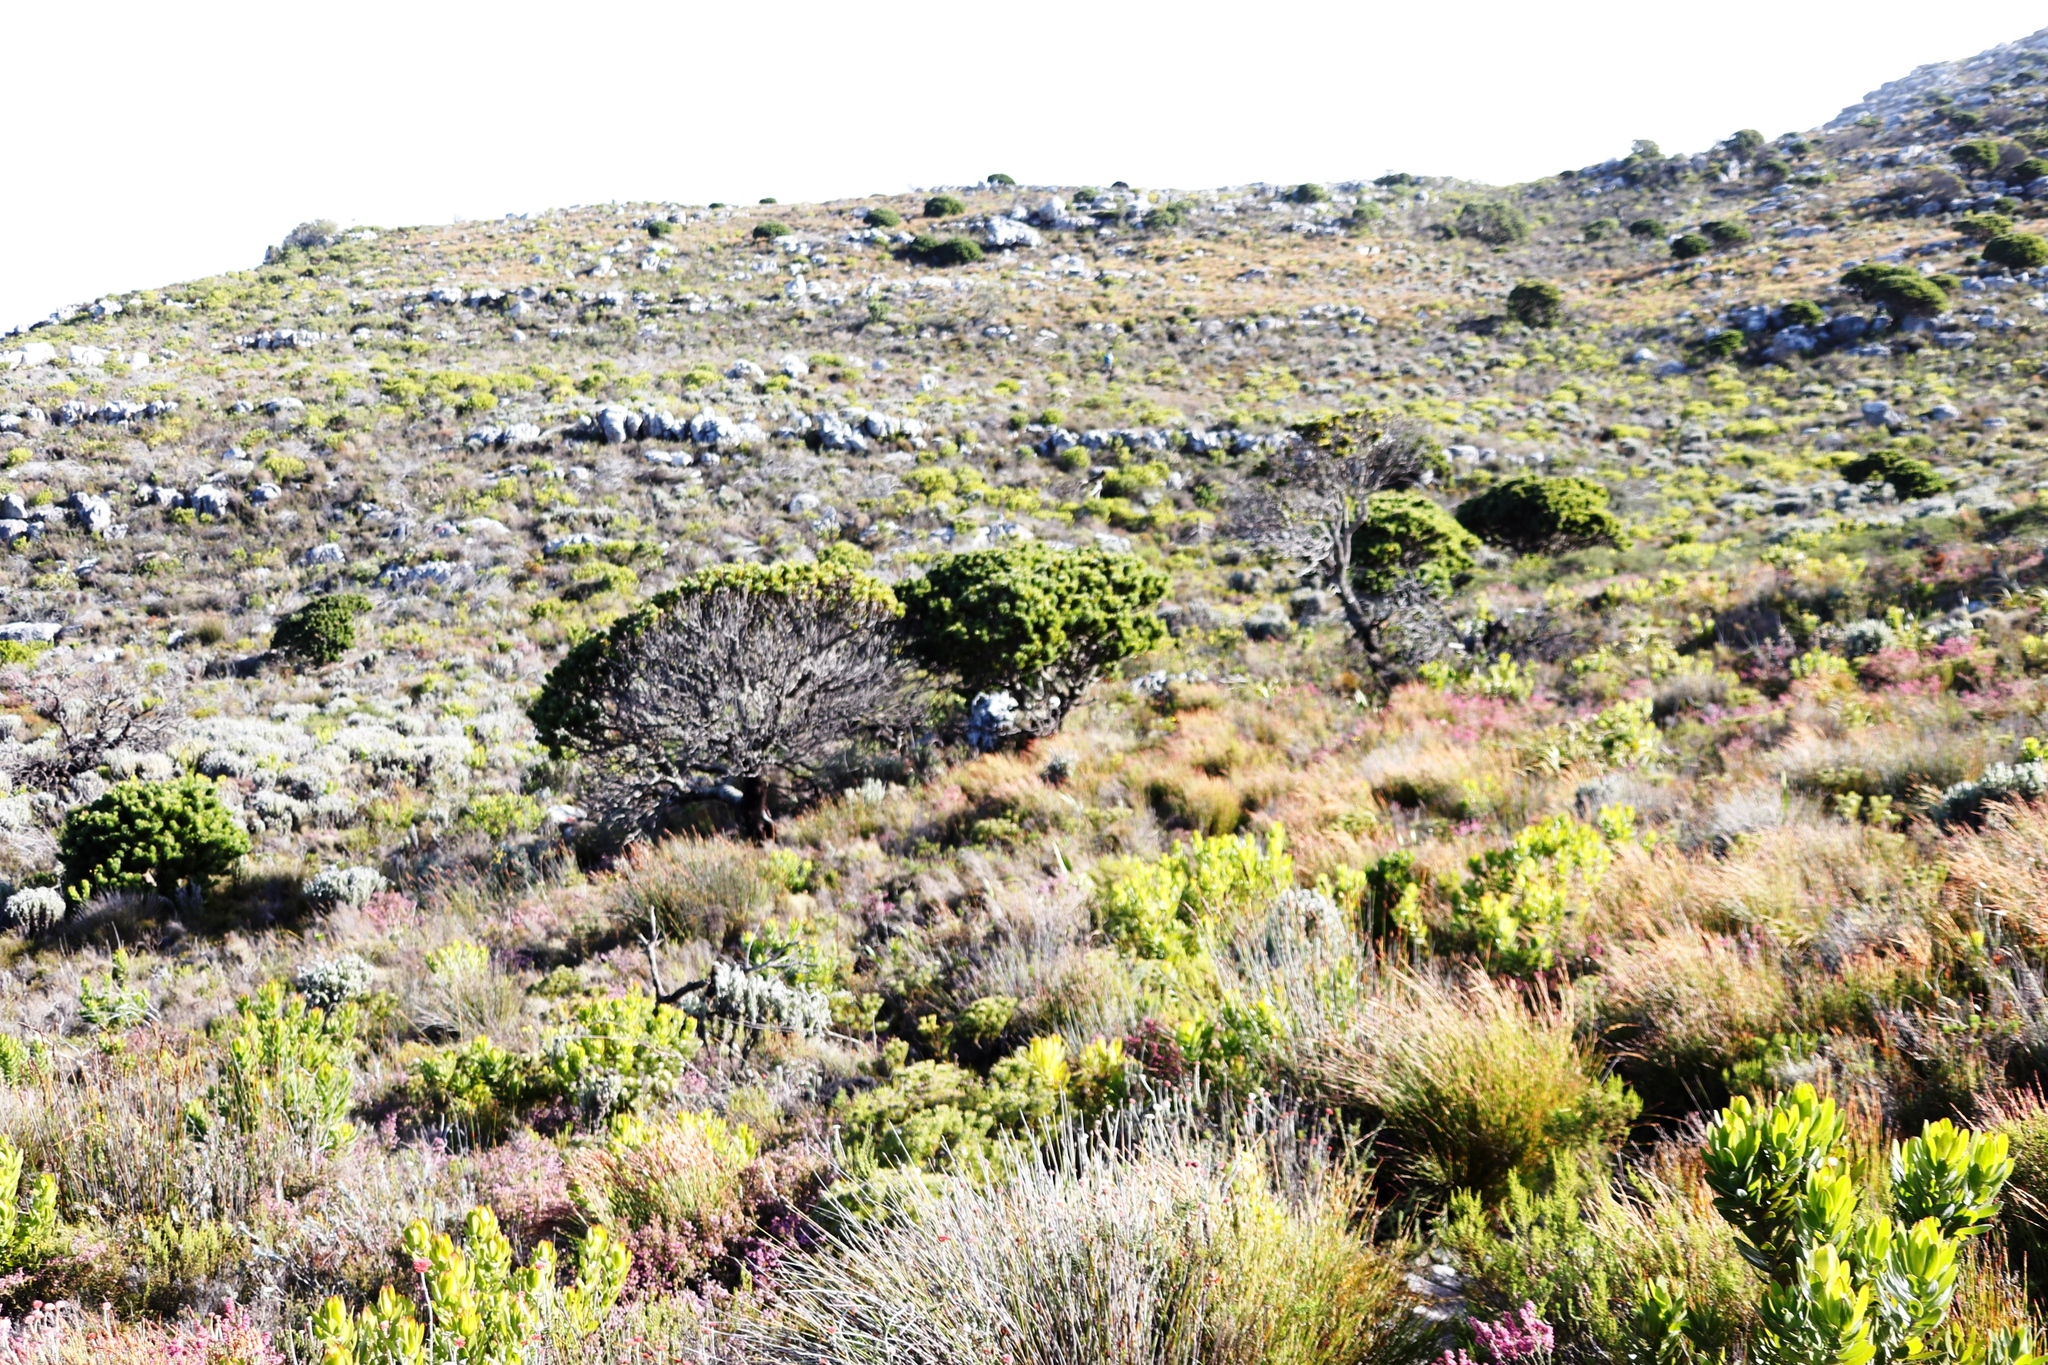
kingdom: Plantae
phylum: Tracheophyta
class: Magnoliopsida
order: Proteales
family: Proteaceae
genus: Mimetes
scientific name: Mimetes fimbriifolius
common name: Fringed bottlebrush
